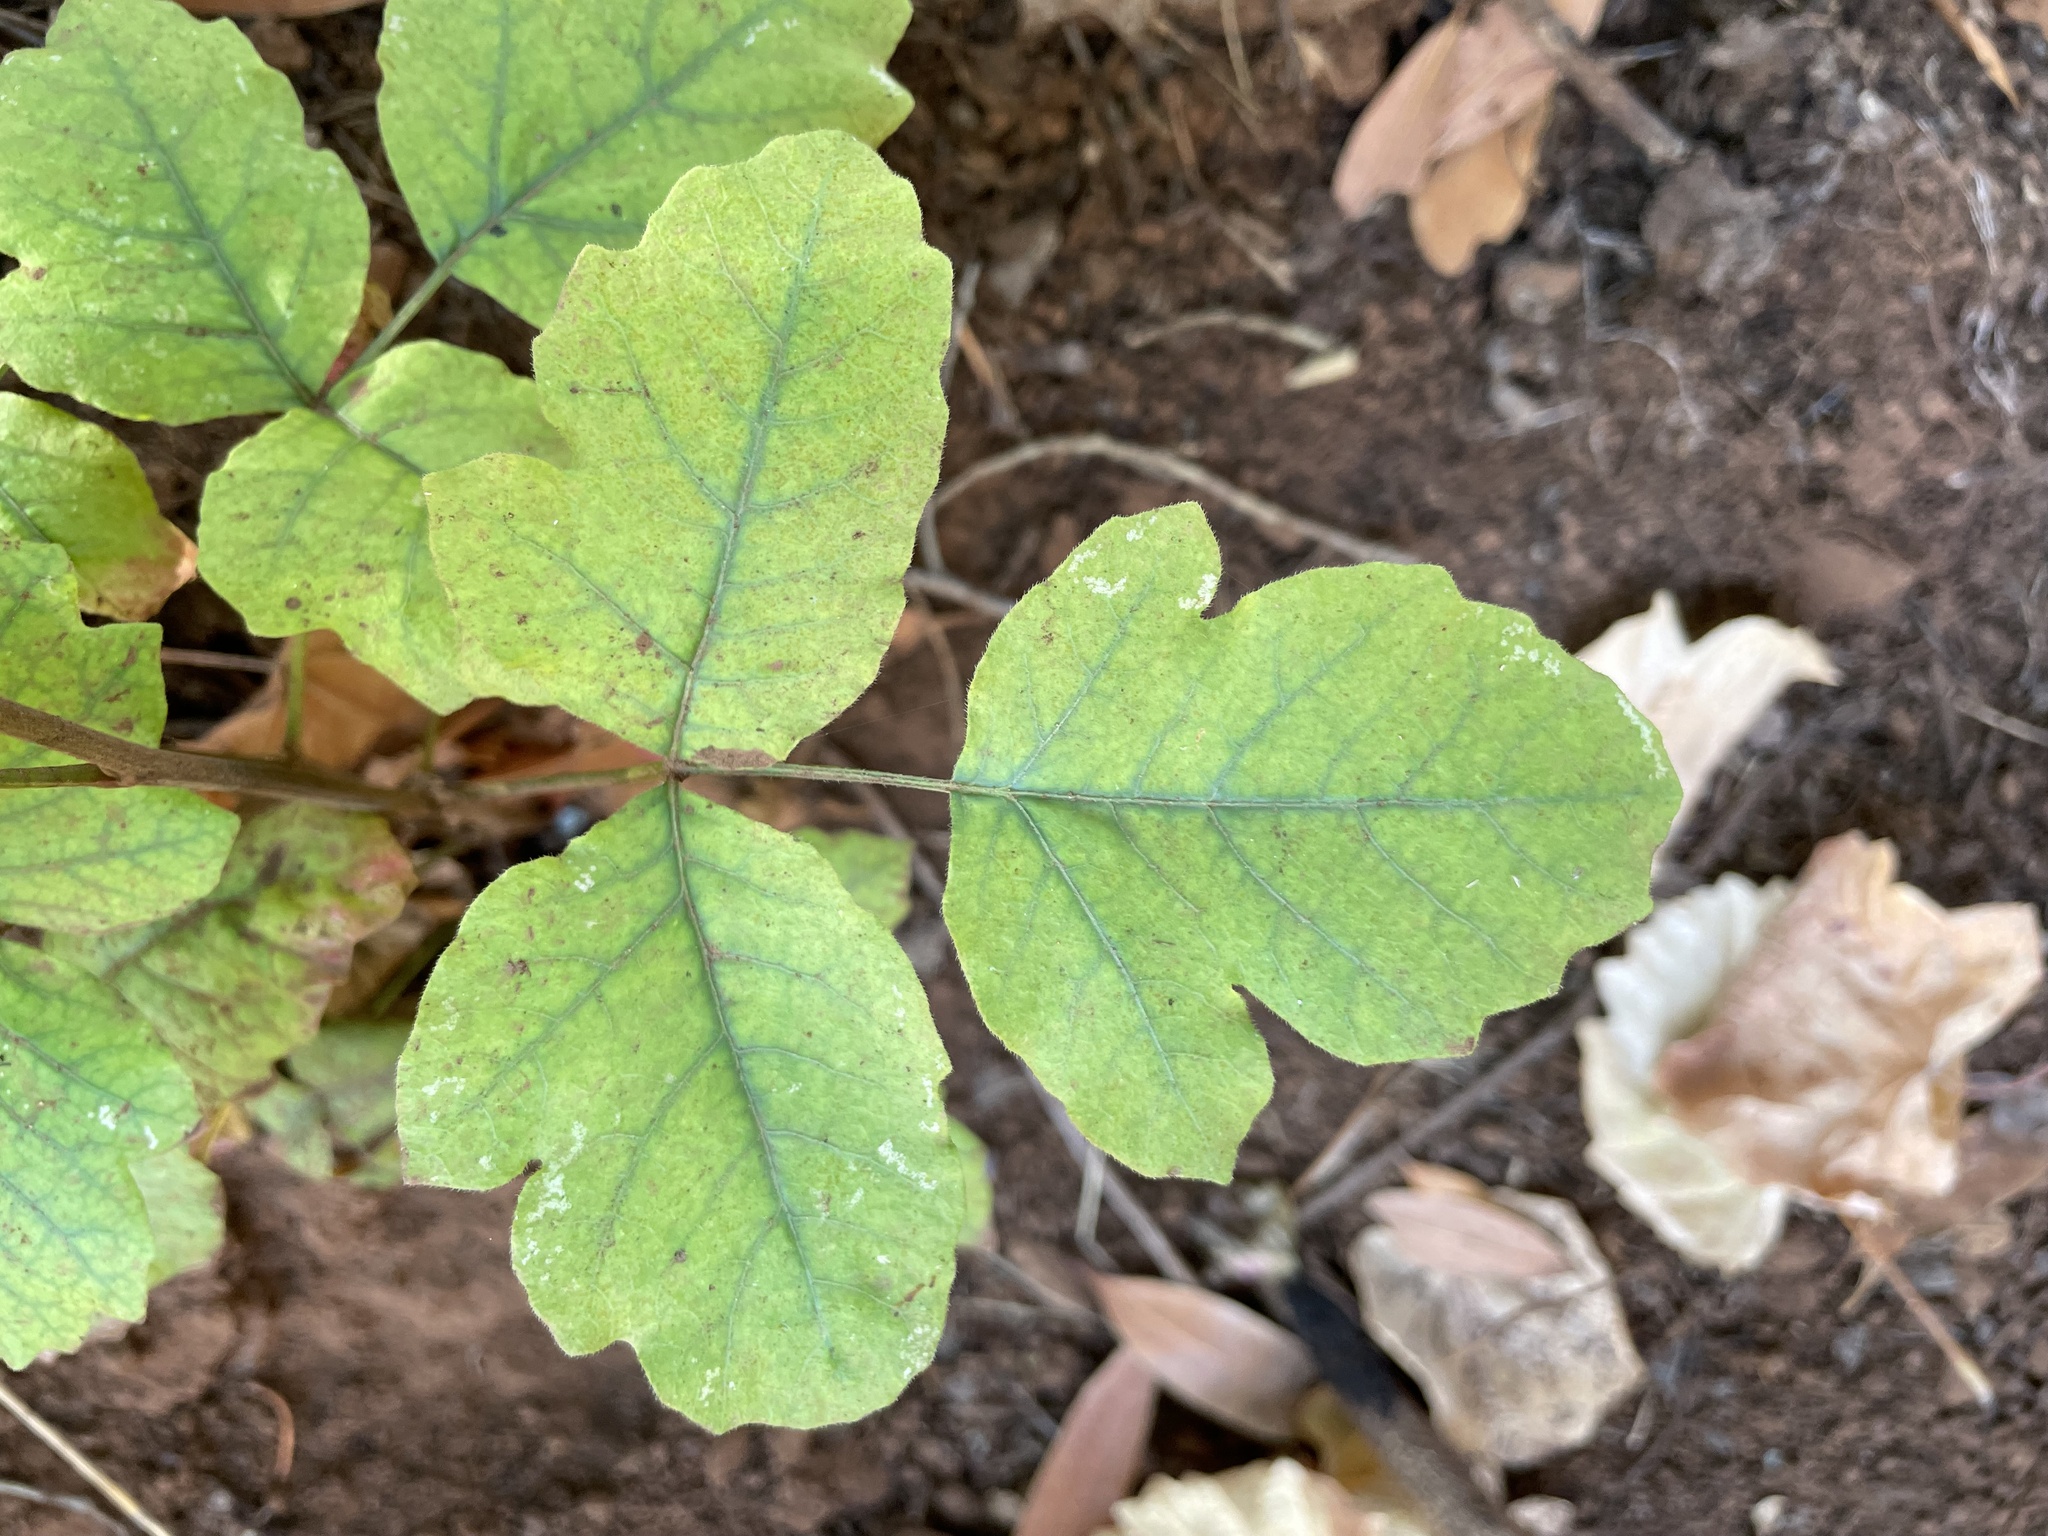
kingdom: Plantae
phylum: Tracheophyta
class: Magnoliopsida
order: Sapindales
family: Anacardiaceae
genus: Toxicodendron
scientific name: Toxicodendron diversilobum
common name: Pacific poison-oak
